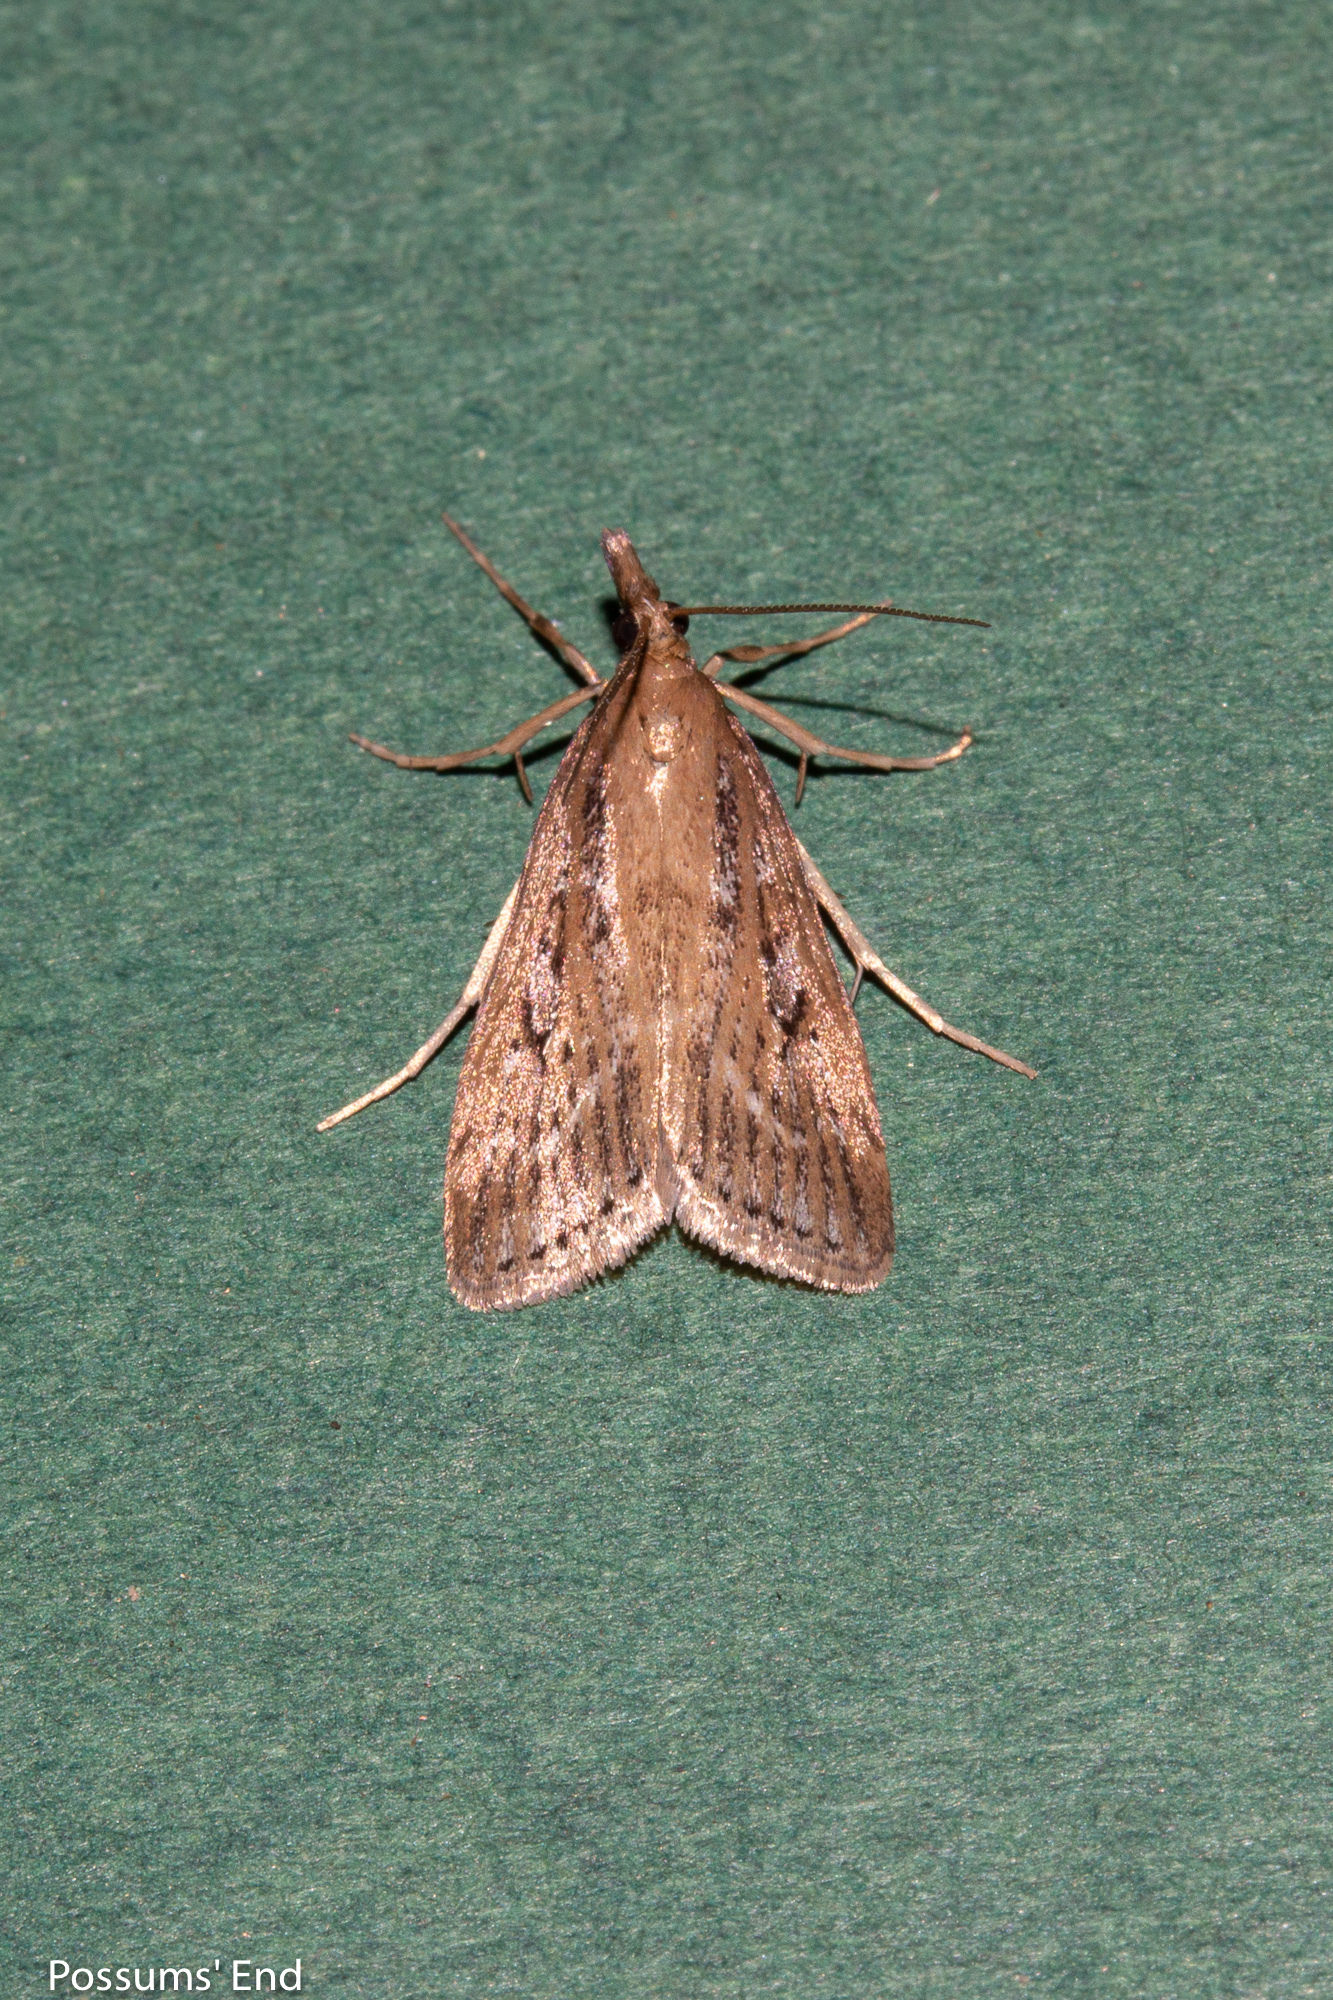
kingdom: Animalia
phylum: Arthropoda
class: Insecta
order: Lepidoptera
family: Crambidae
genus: Eudonia
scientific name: Eudonia octophora
